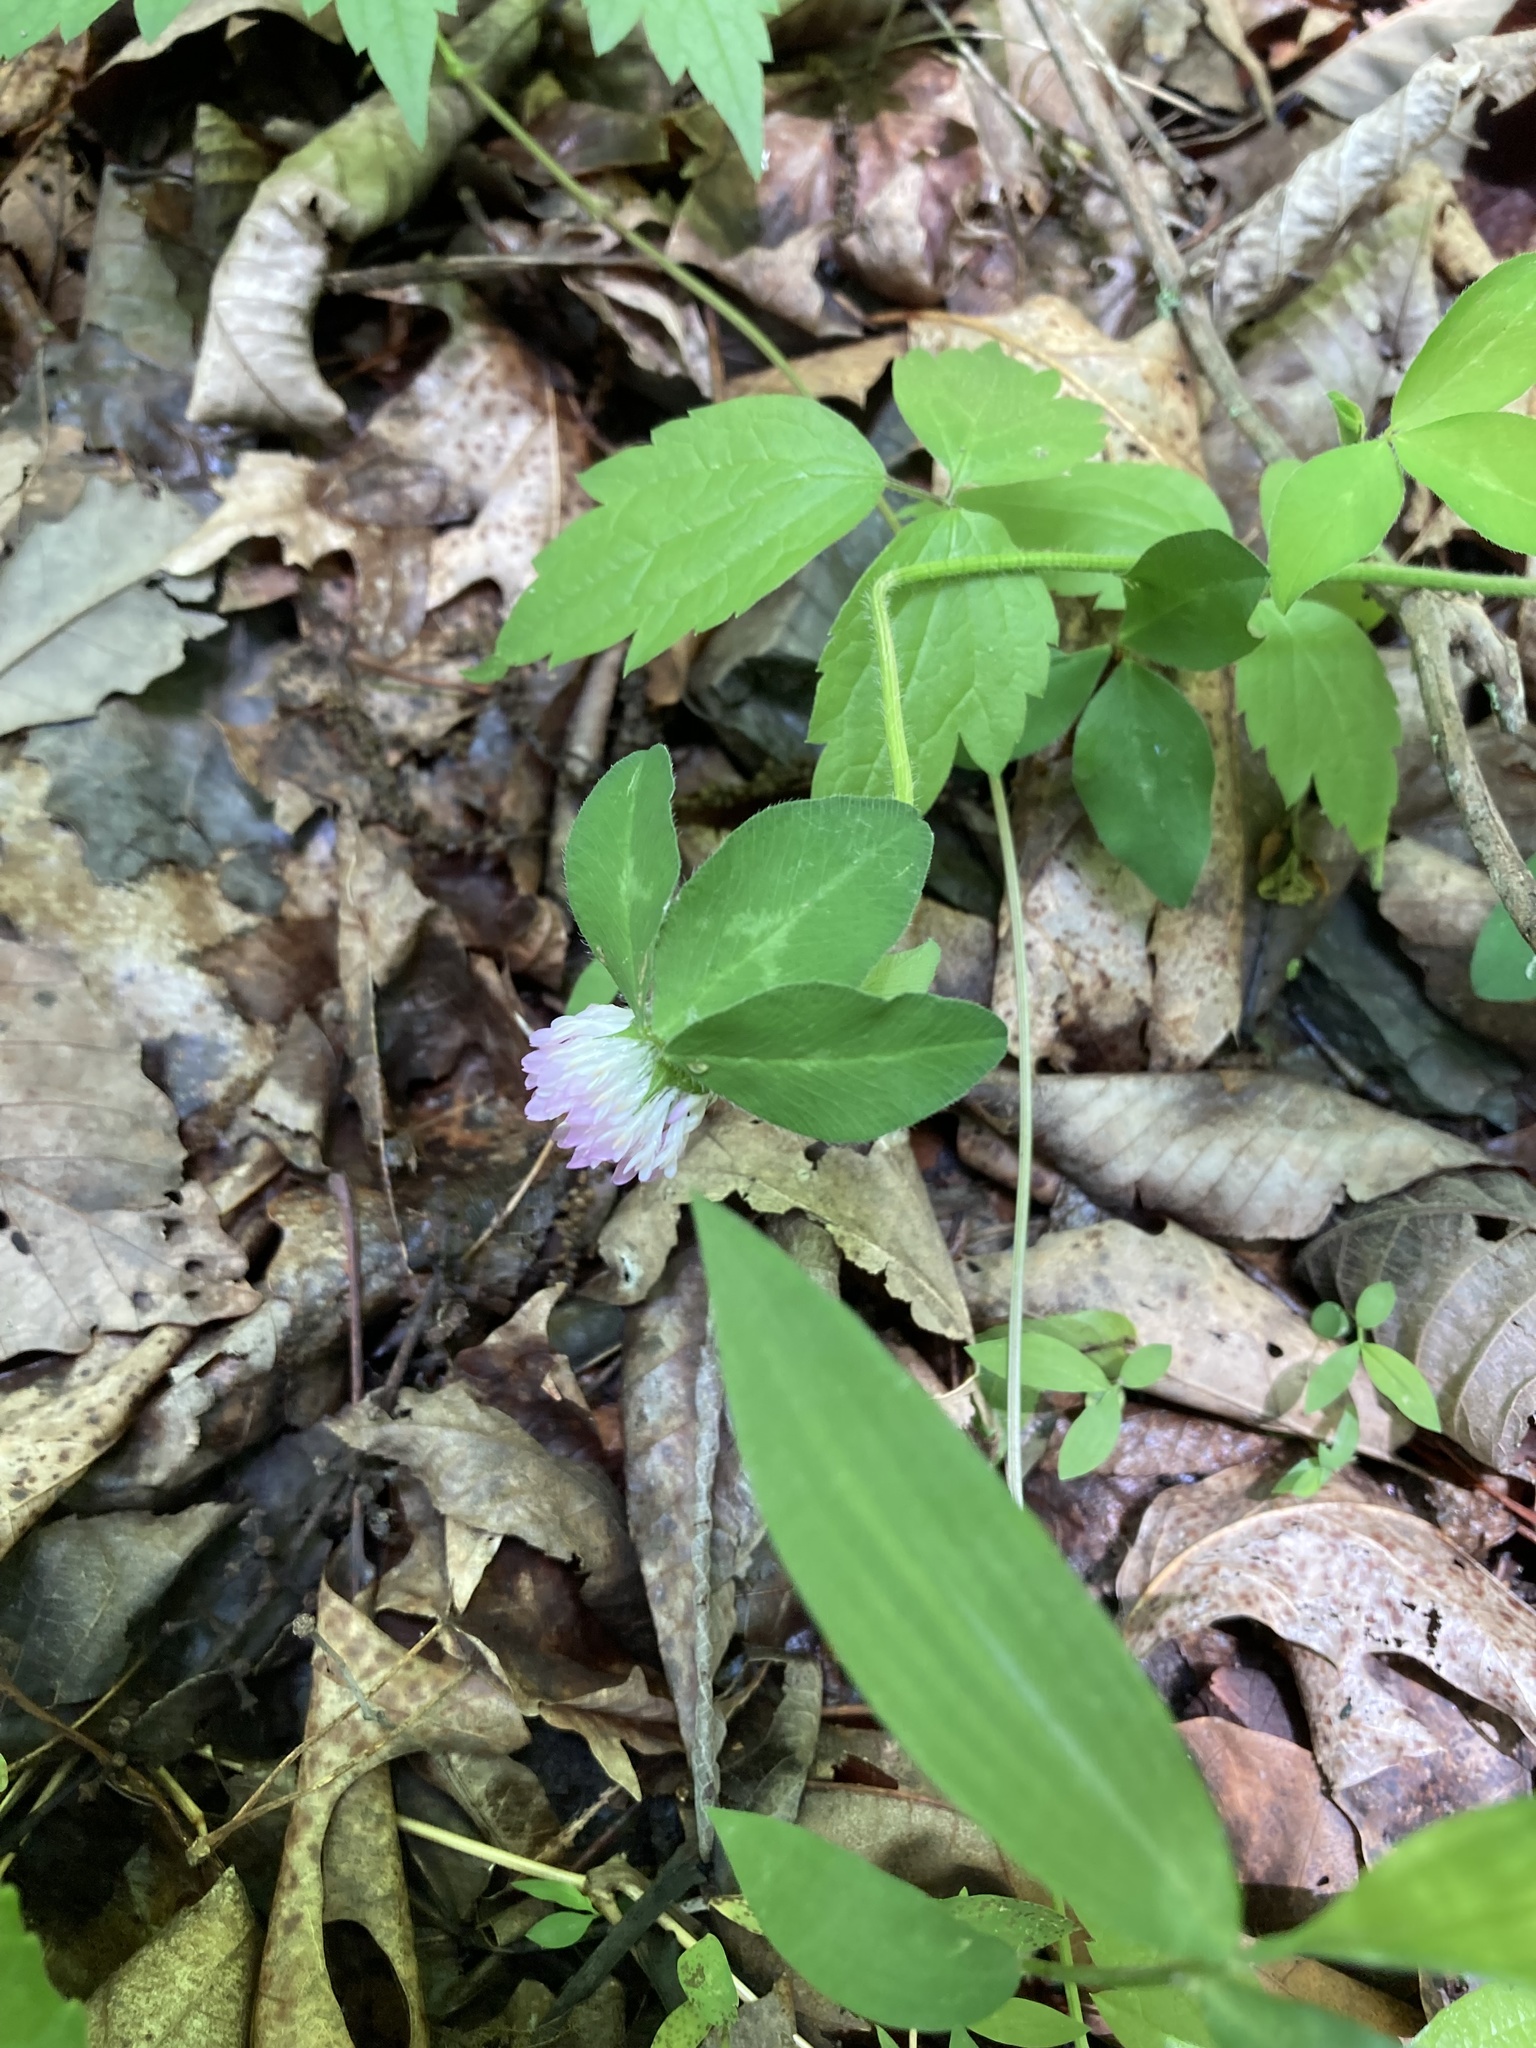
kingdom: Plantae
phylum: Tracheophyta
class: Magnoliopsida
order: Fabales
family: Fabaceae
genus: Trifolium
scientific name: Trifolium pratense
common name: Red clover
